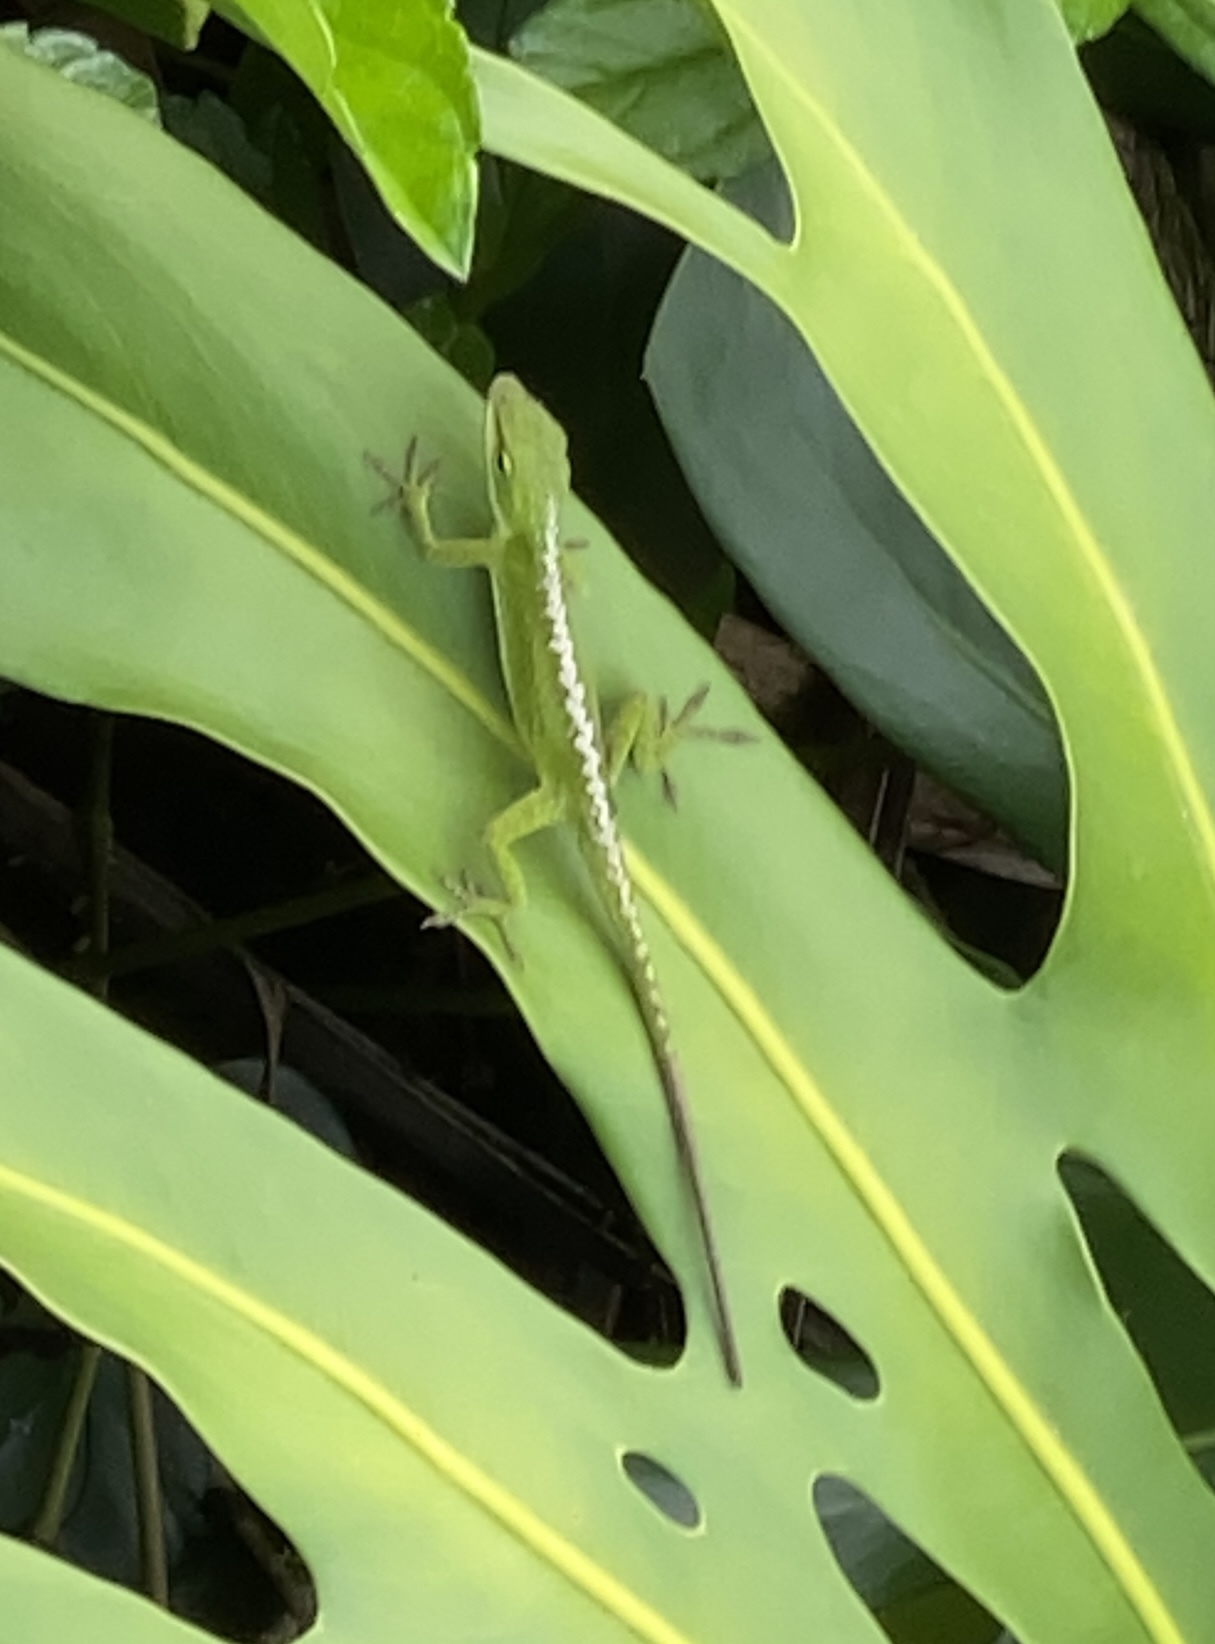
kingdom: Animalia
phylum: Chordata
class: Squamata
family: Dactyloidae
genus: Anolis
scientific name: Anolis carolinensis
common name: Green anole
